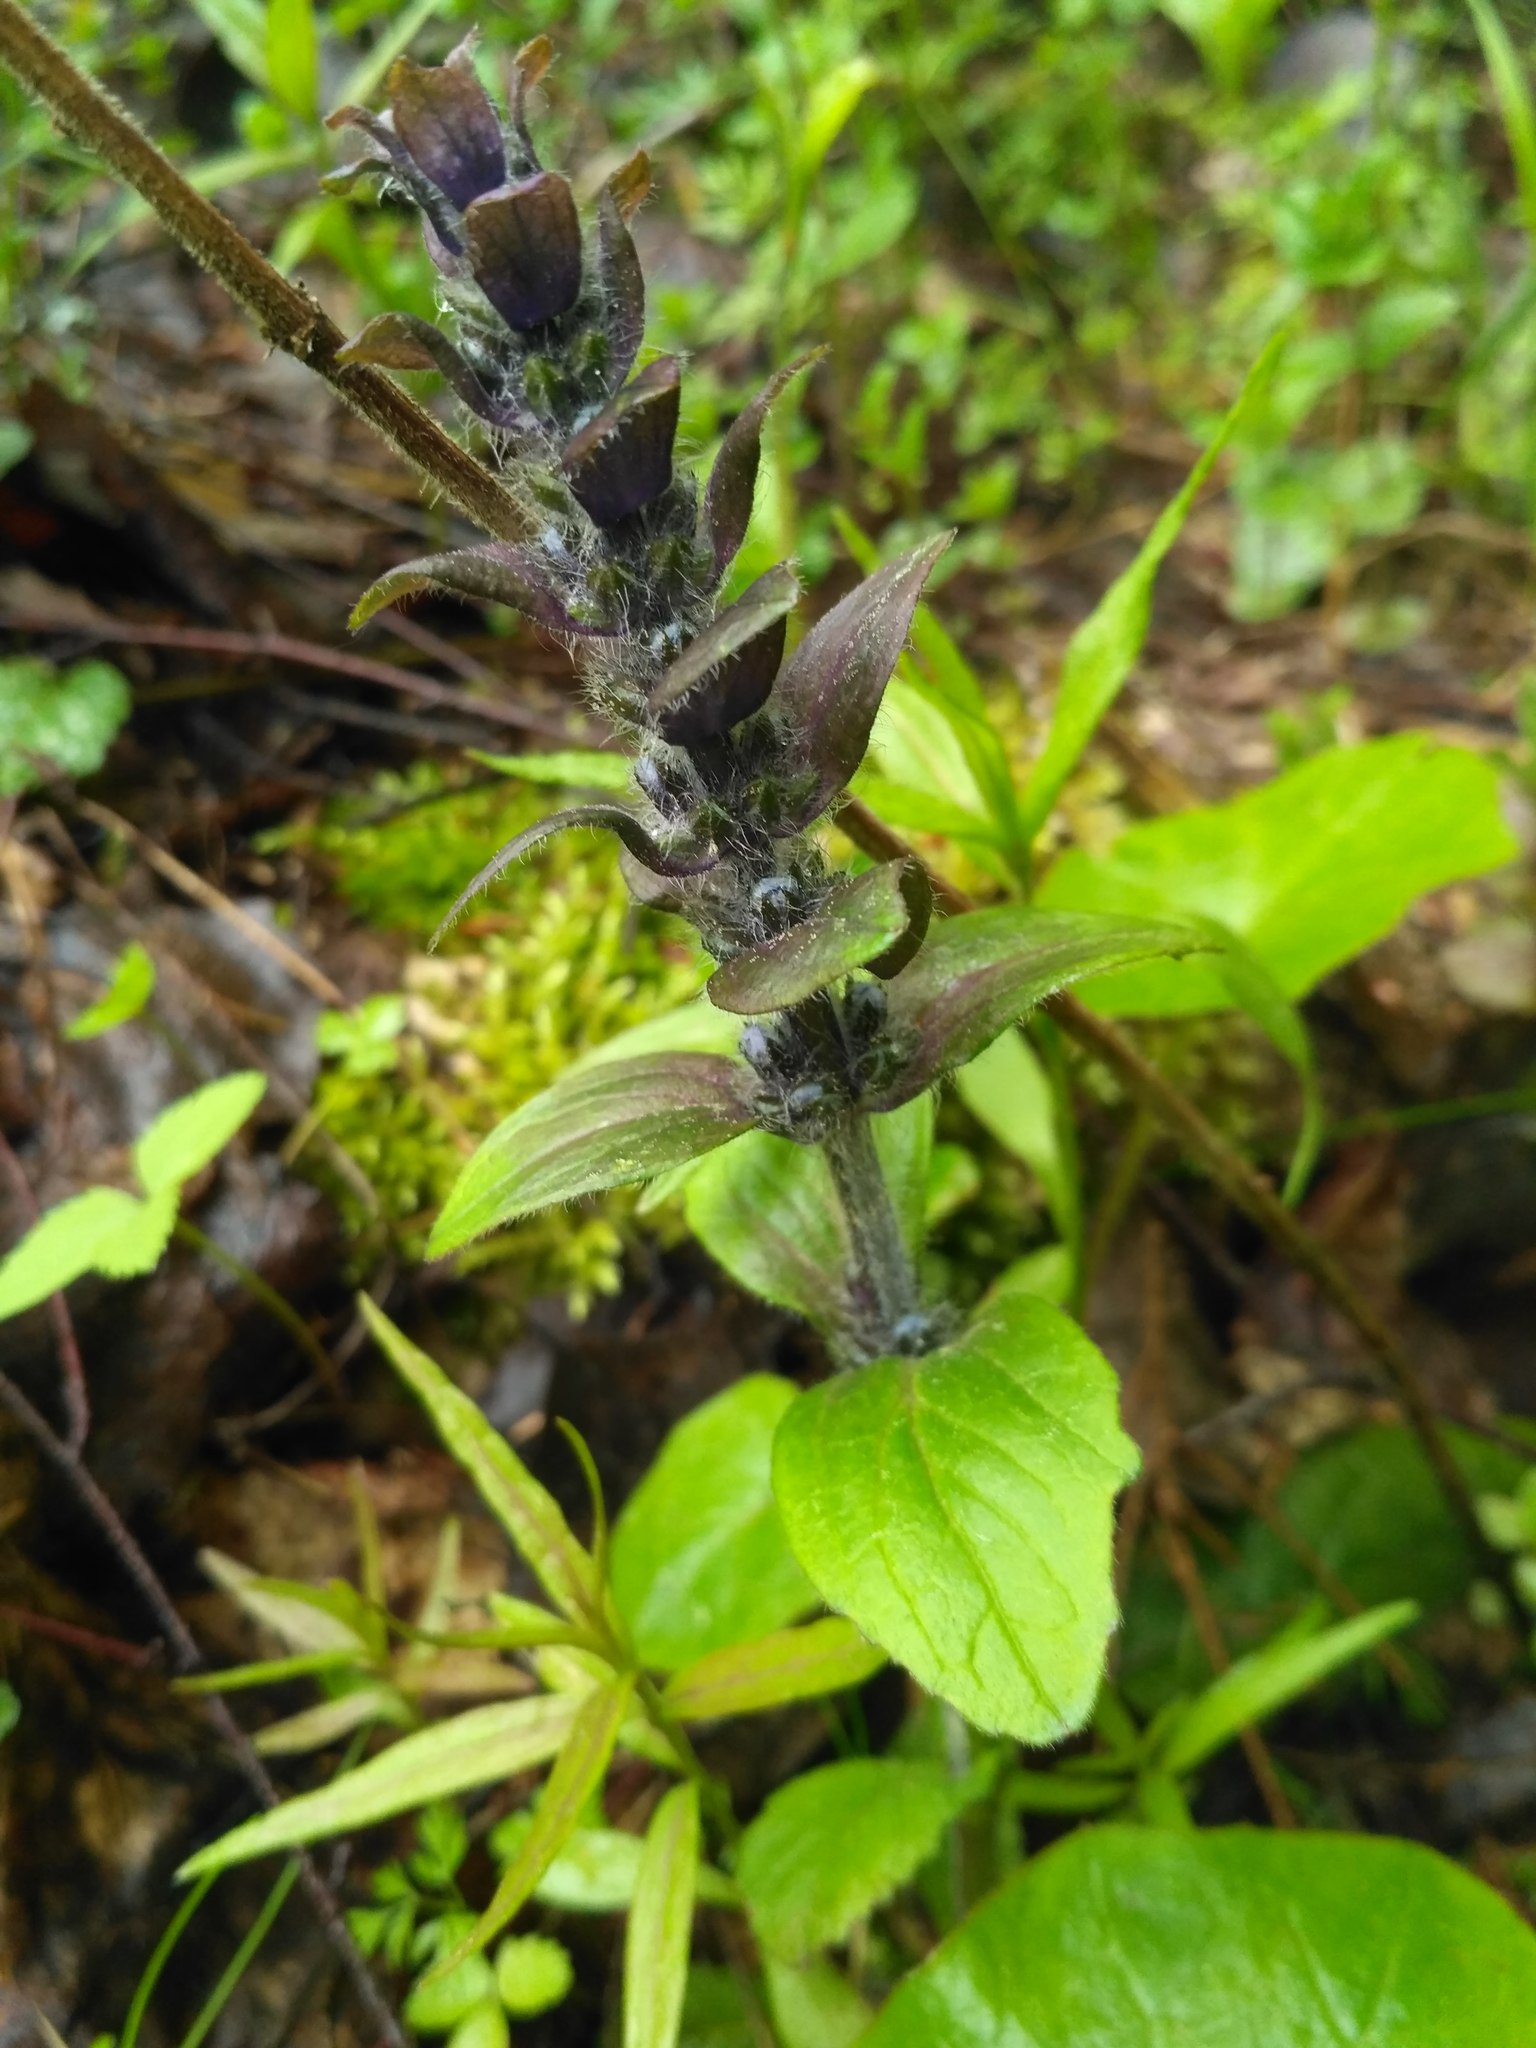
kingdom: Plantae
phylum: Tracheophyta
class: Magnoliopsida
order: Lamiales
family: Lamiaceae
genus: Ajuga
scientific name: Ajuga reptans
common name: Bugle
